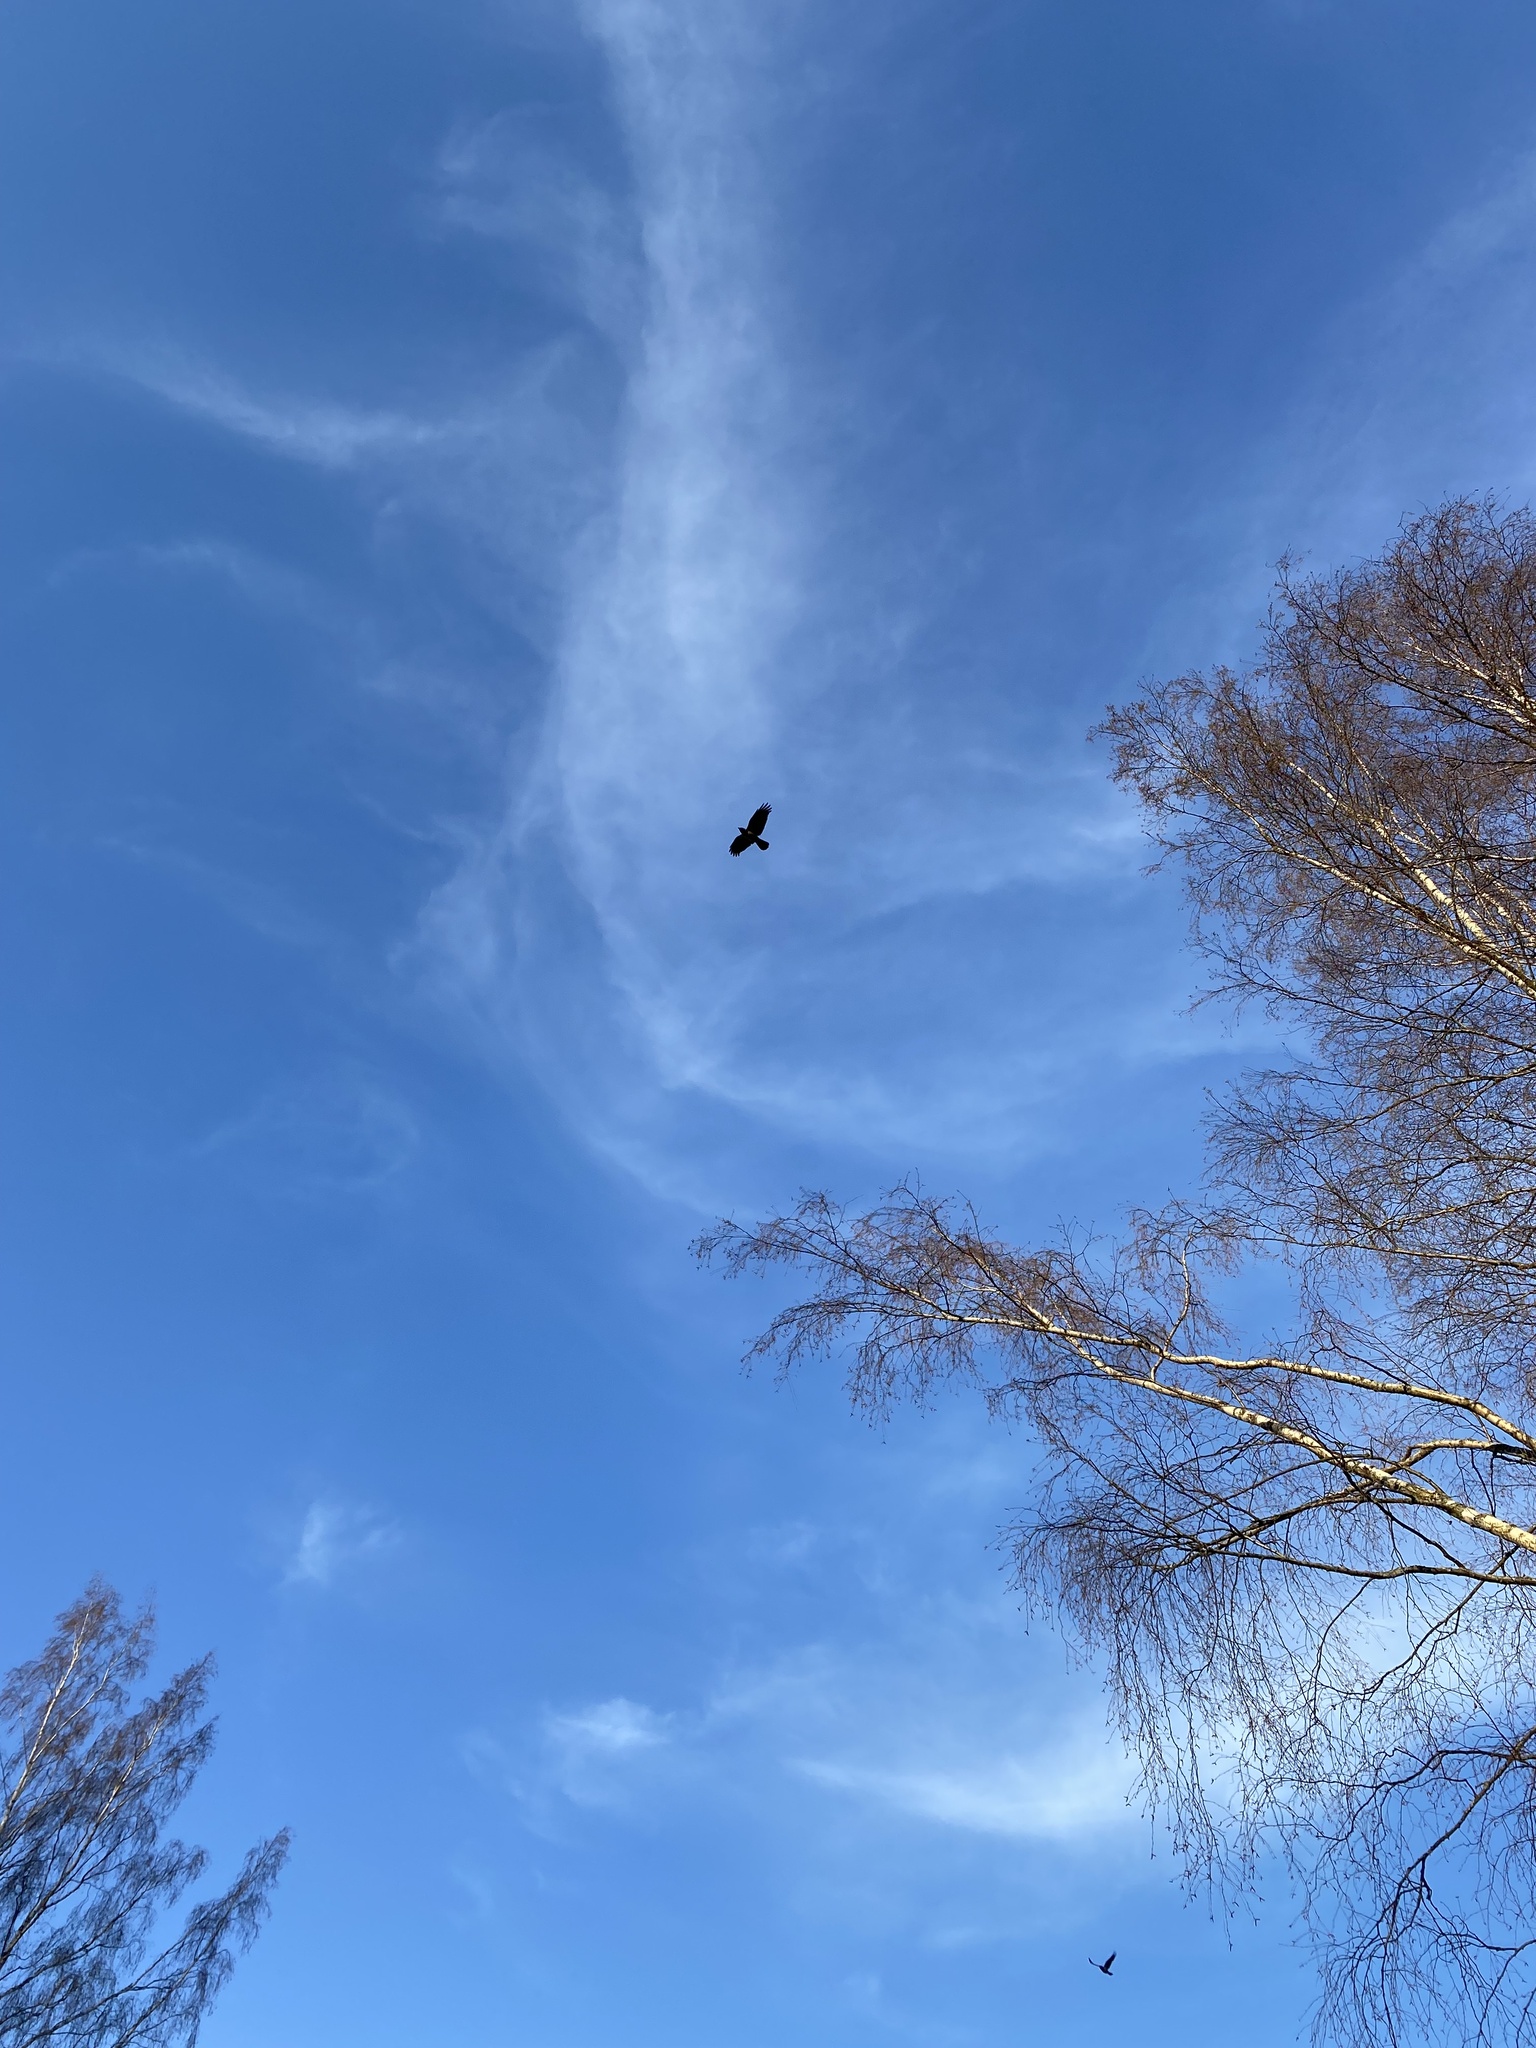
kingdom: Animalia
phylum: Chordata
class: Aves
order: Passeriformes
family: Corvidae
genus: Corvus
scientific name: Corvus cornix
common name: Hooded crow
